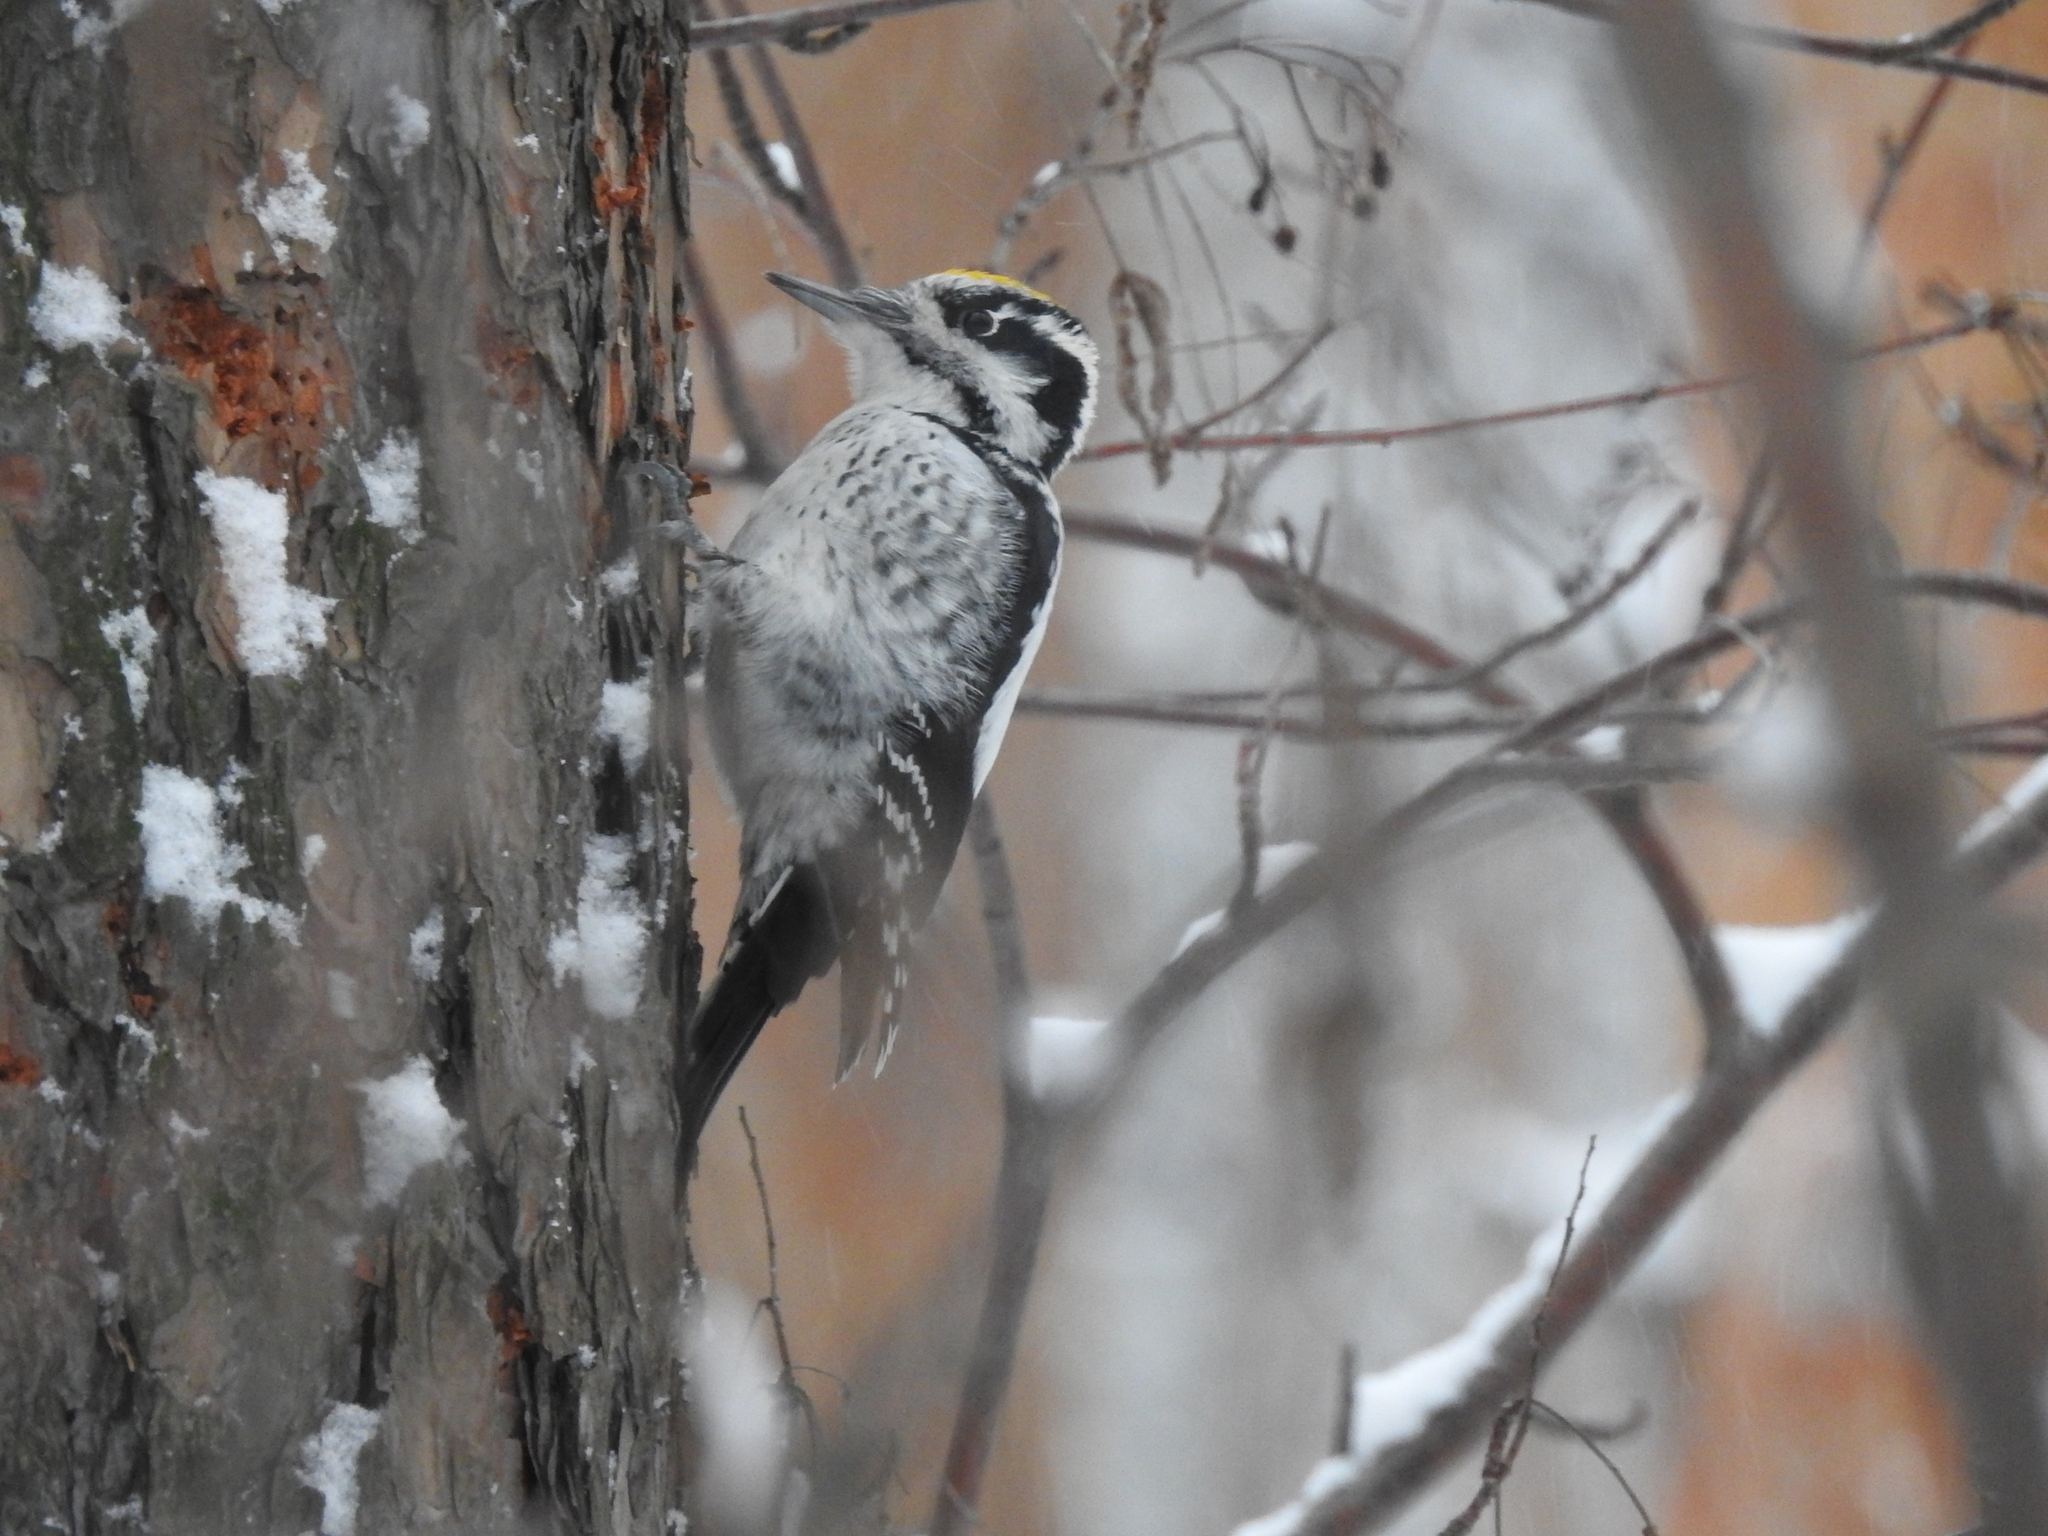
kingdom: Animalia
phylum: Chordata
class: Aves
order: Piciformes
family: Picidae
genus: Picoides
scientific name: Picoides tridactylus
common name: Eurasian three-toed woodpecker
